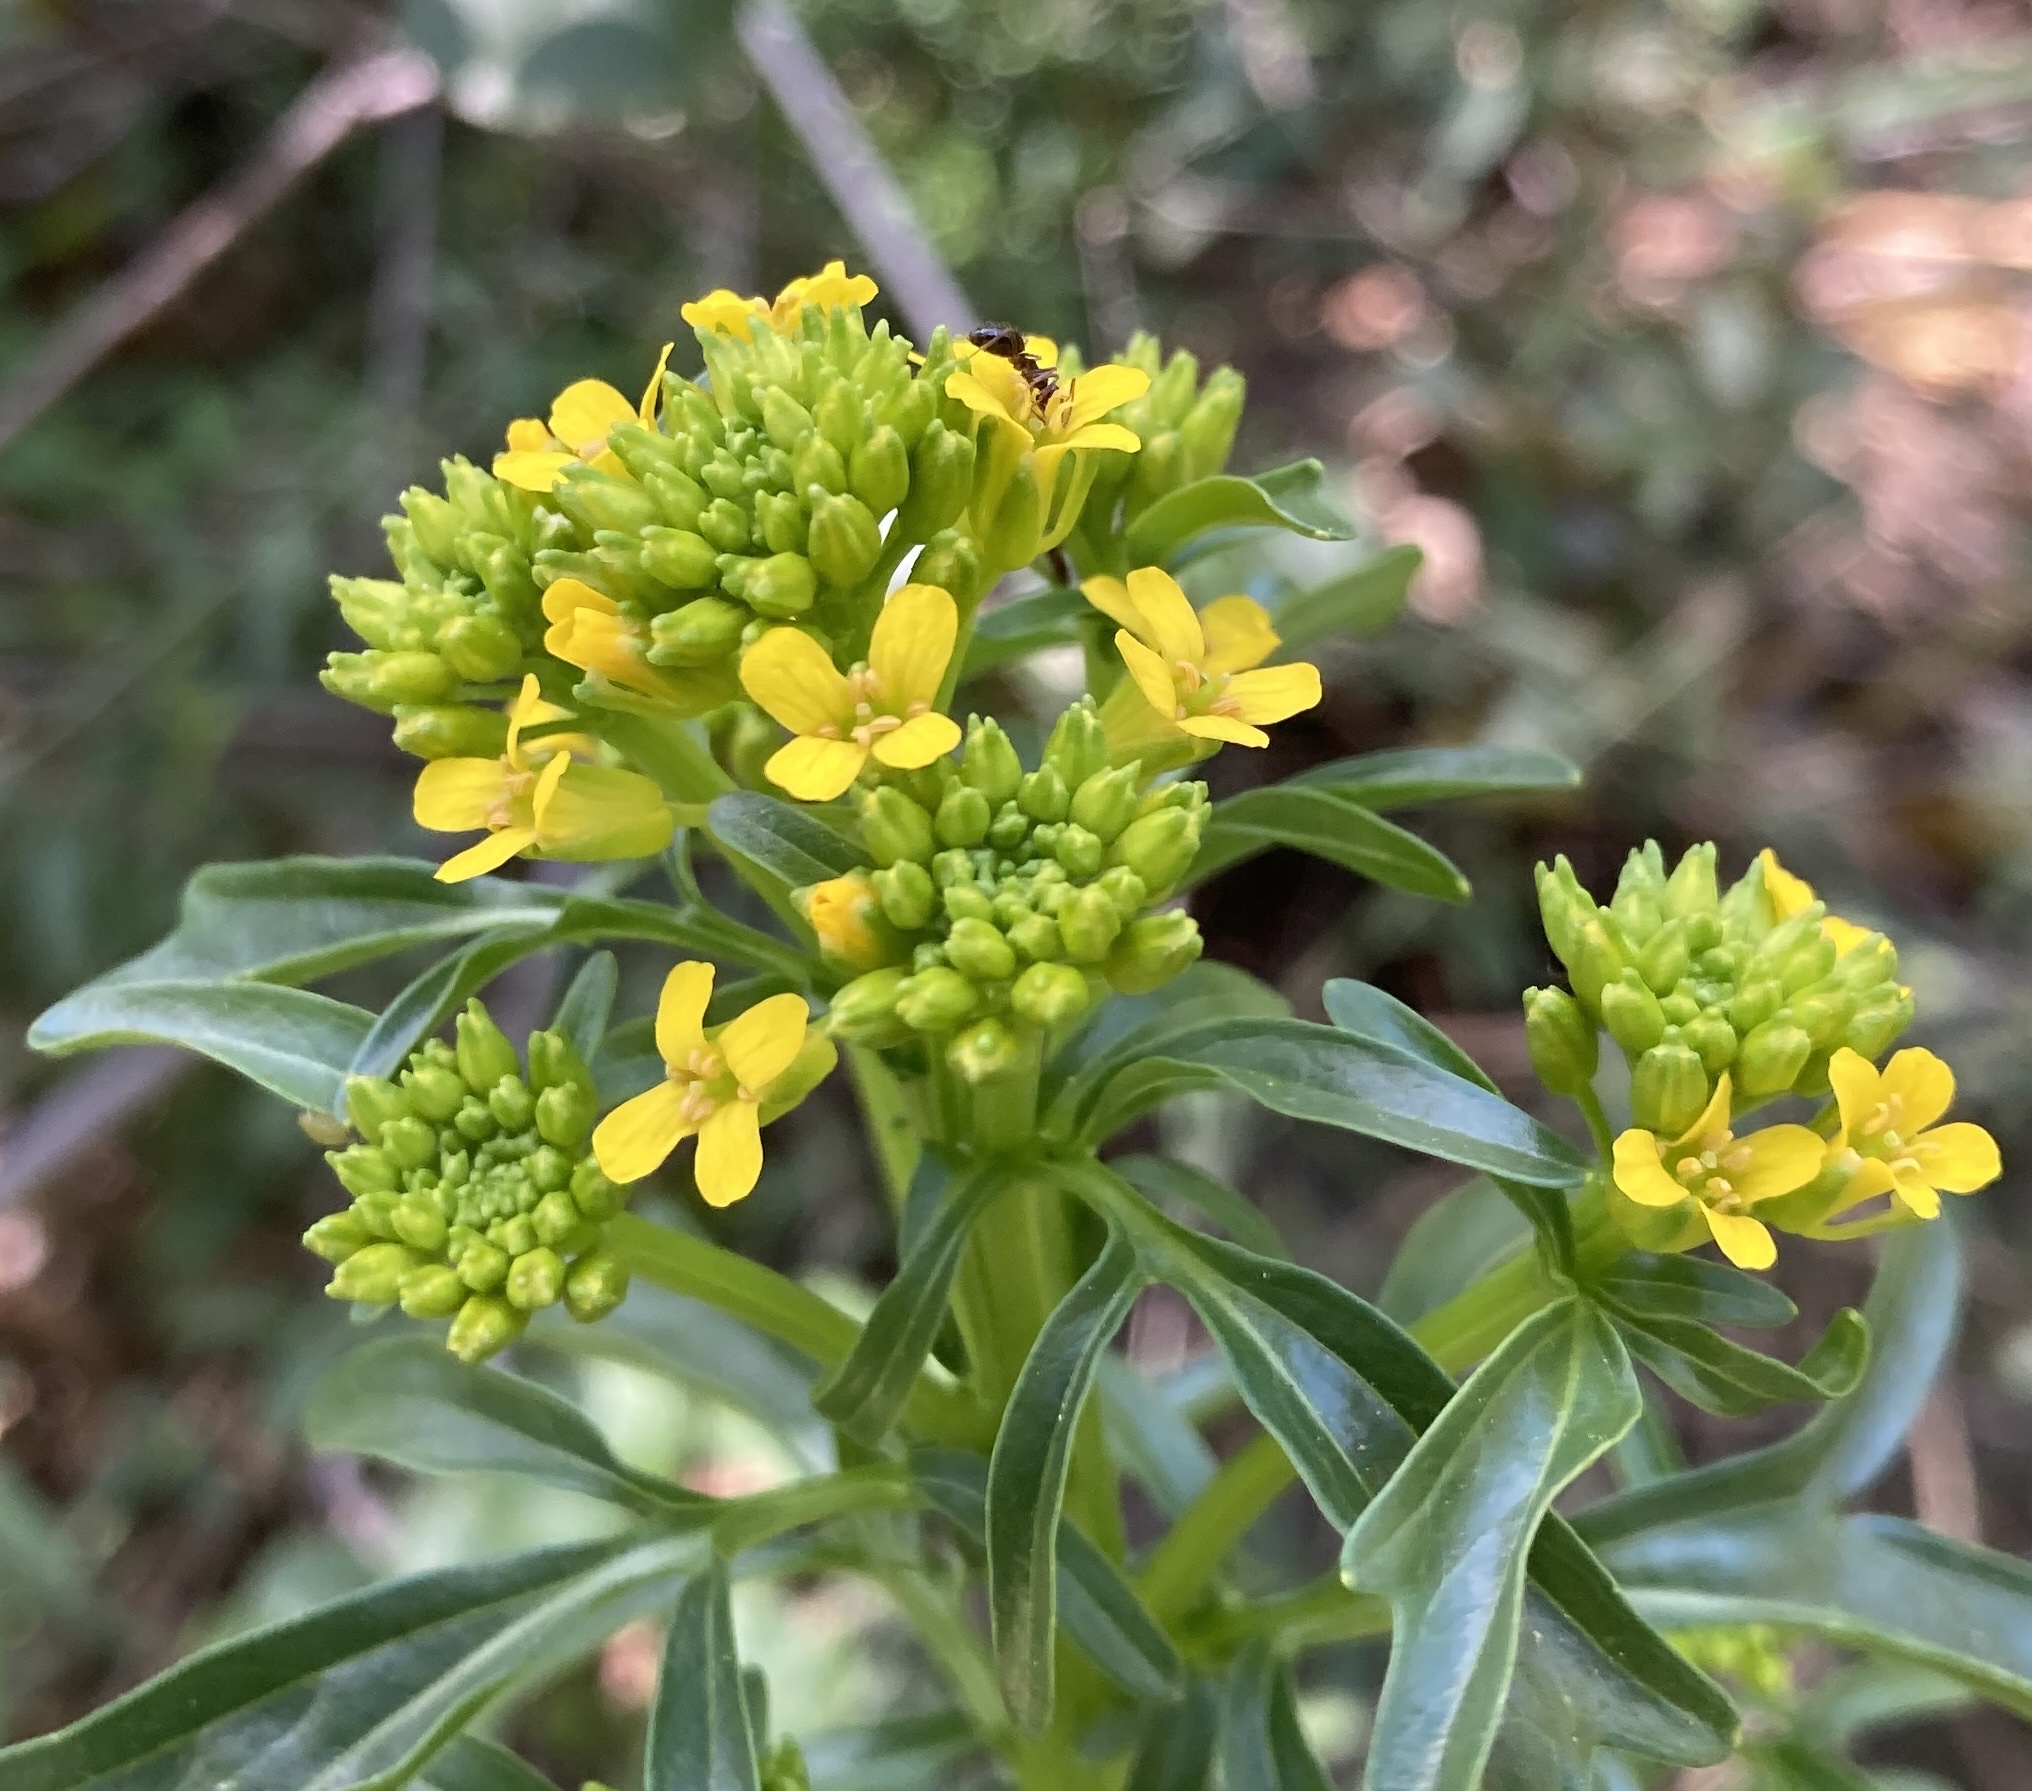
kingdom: Plantae
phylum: Tracheophyta
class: Magnoliopsida
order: Brassicales
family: Brassicaceae
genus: Barbarea
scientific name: Barbarea orthoceras
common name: American wintercress
